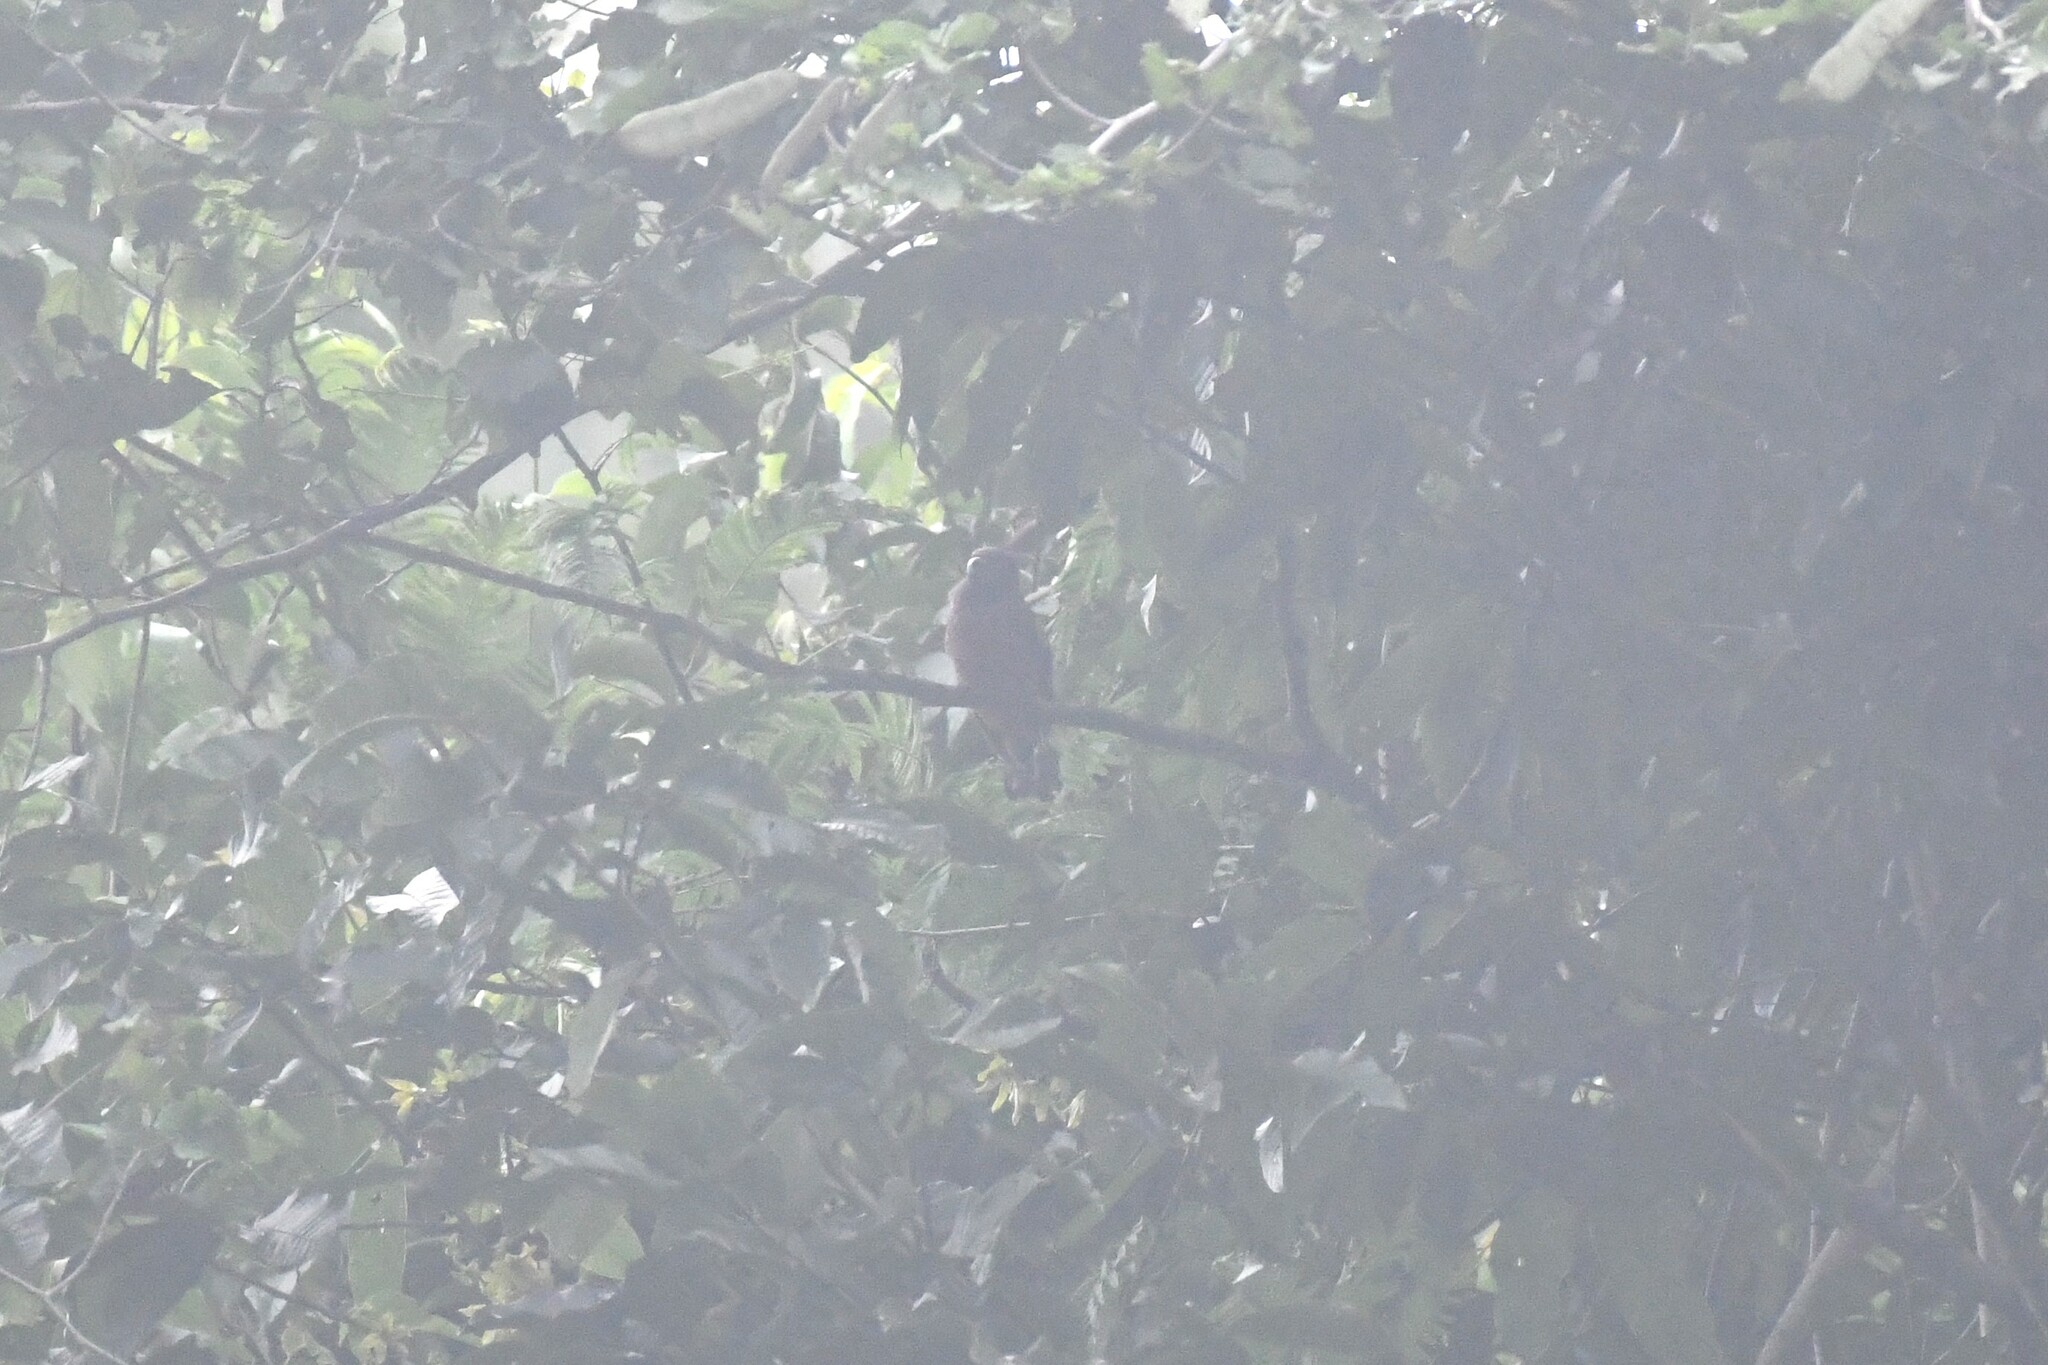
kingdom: Animalia
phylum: Chordata
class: Aves
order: Passeriformes
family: Eurylaimidae
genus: Eurylaimus
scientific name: Eurylaimus javanicus
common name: Banded broadbill
